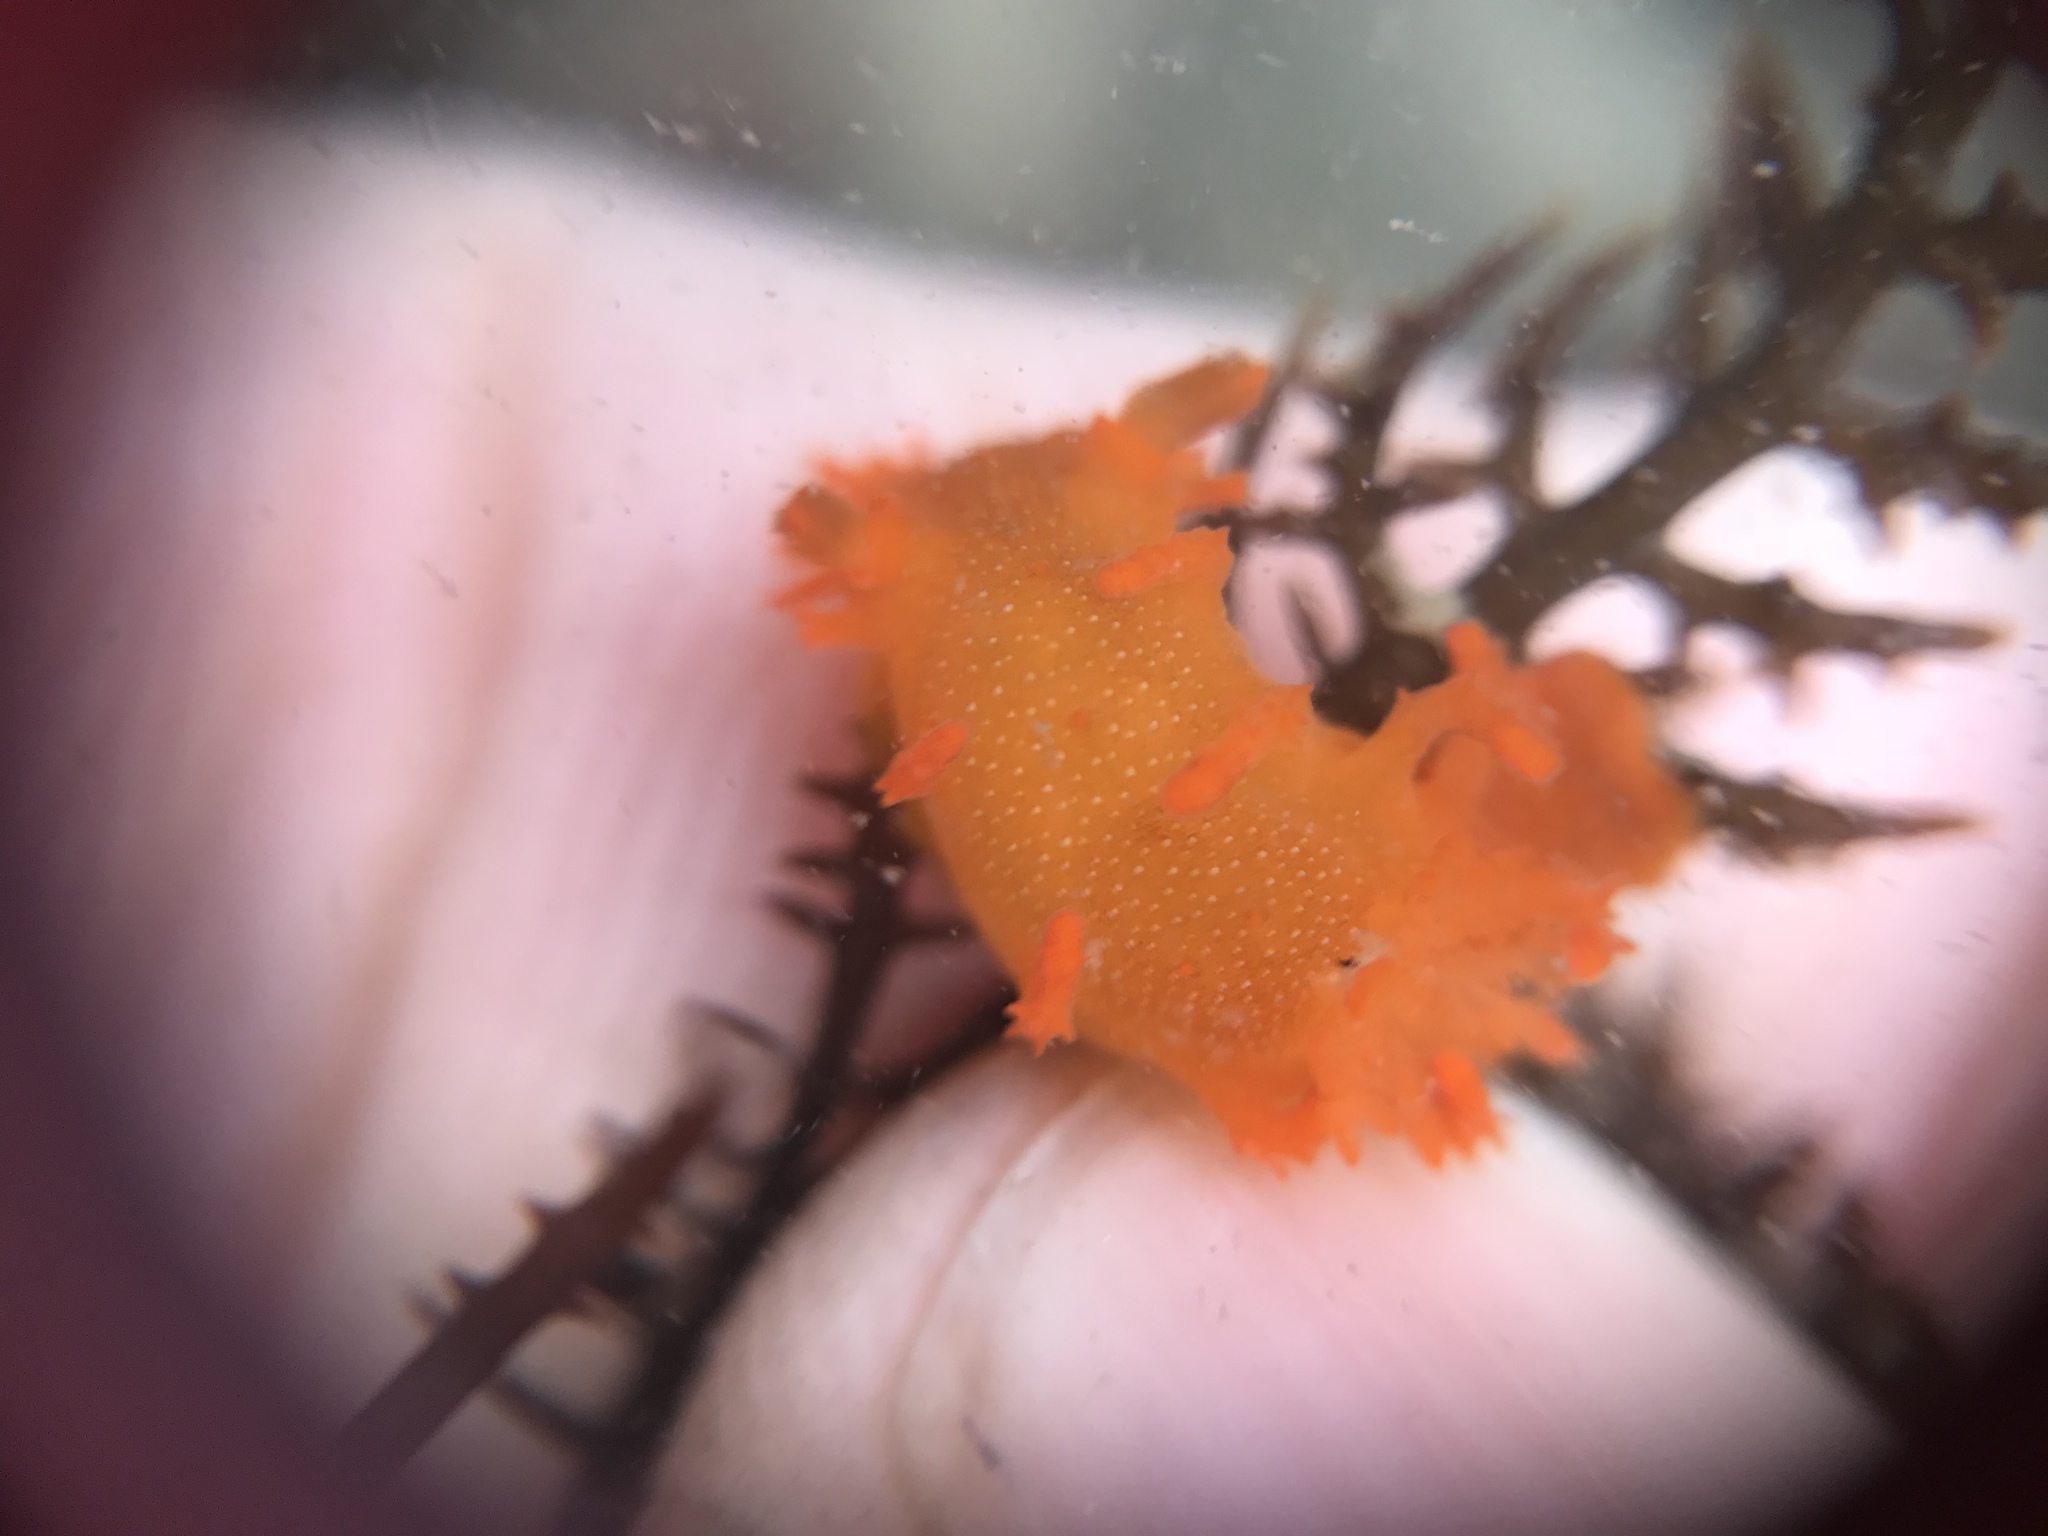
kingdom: Animalia
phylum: Mollusca
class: Gastropoda
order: Nudibranchia
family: Polyceridae
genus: Triopha
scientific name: Triopha maculata
